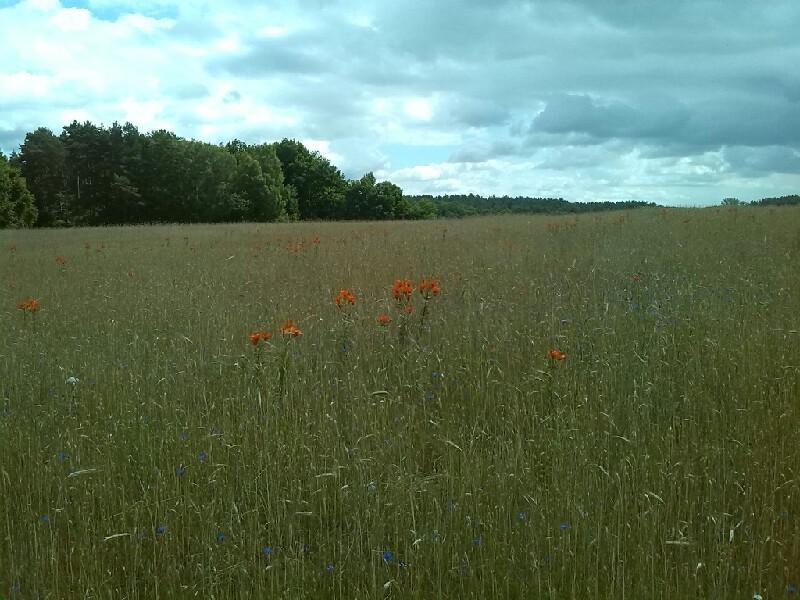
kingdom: Plantae
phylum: Tracheophyta
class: Liliopsida
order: Liliales
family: Liliaceae
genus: Lilium
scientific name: Lilium bulbiferum
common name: Orange lily
